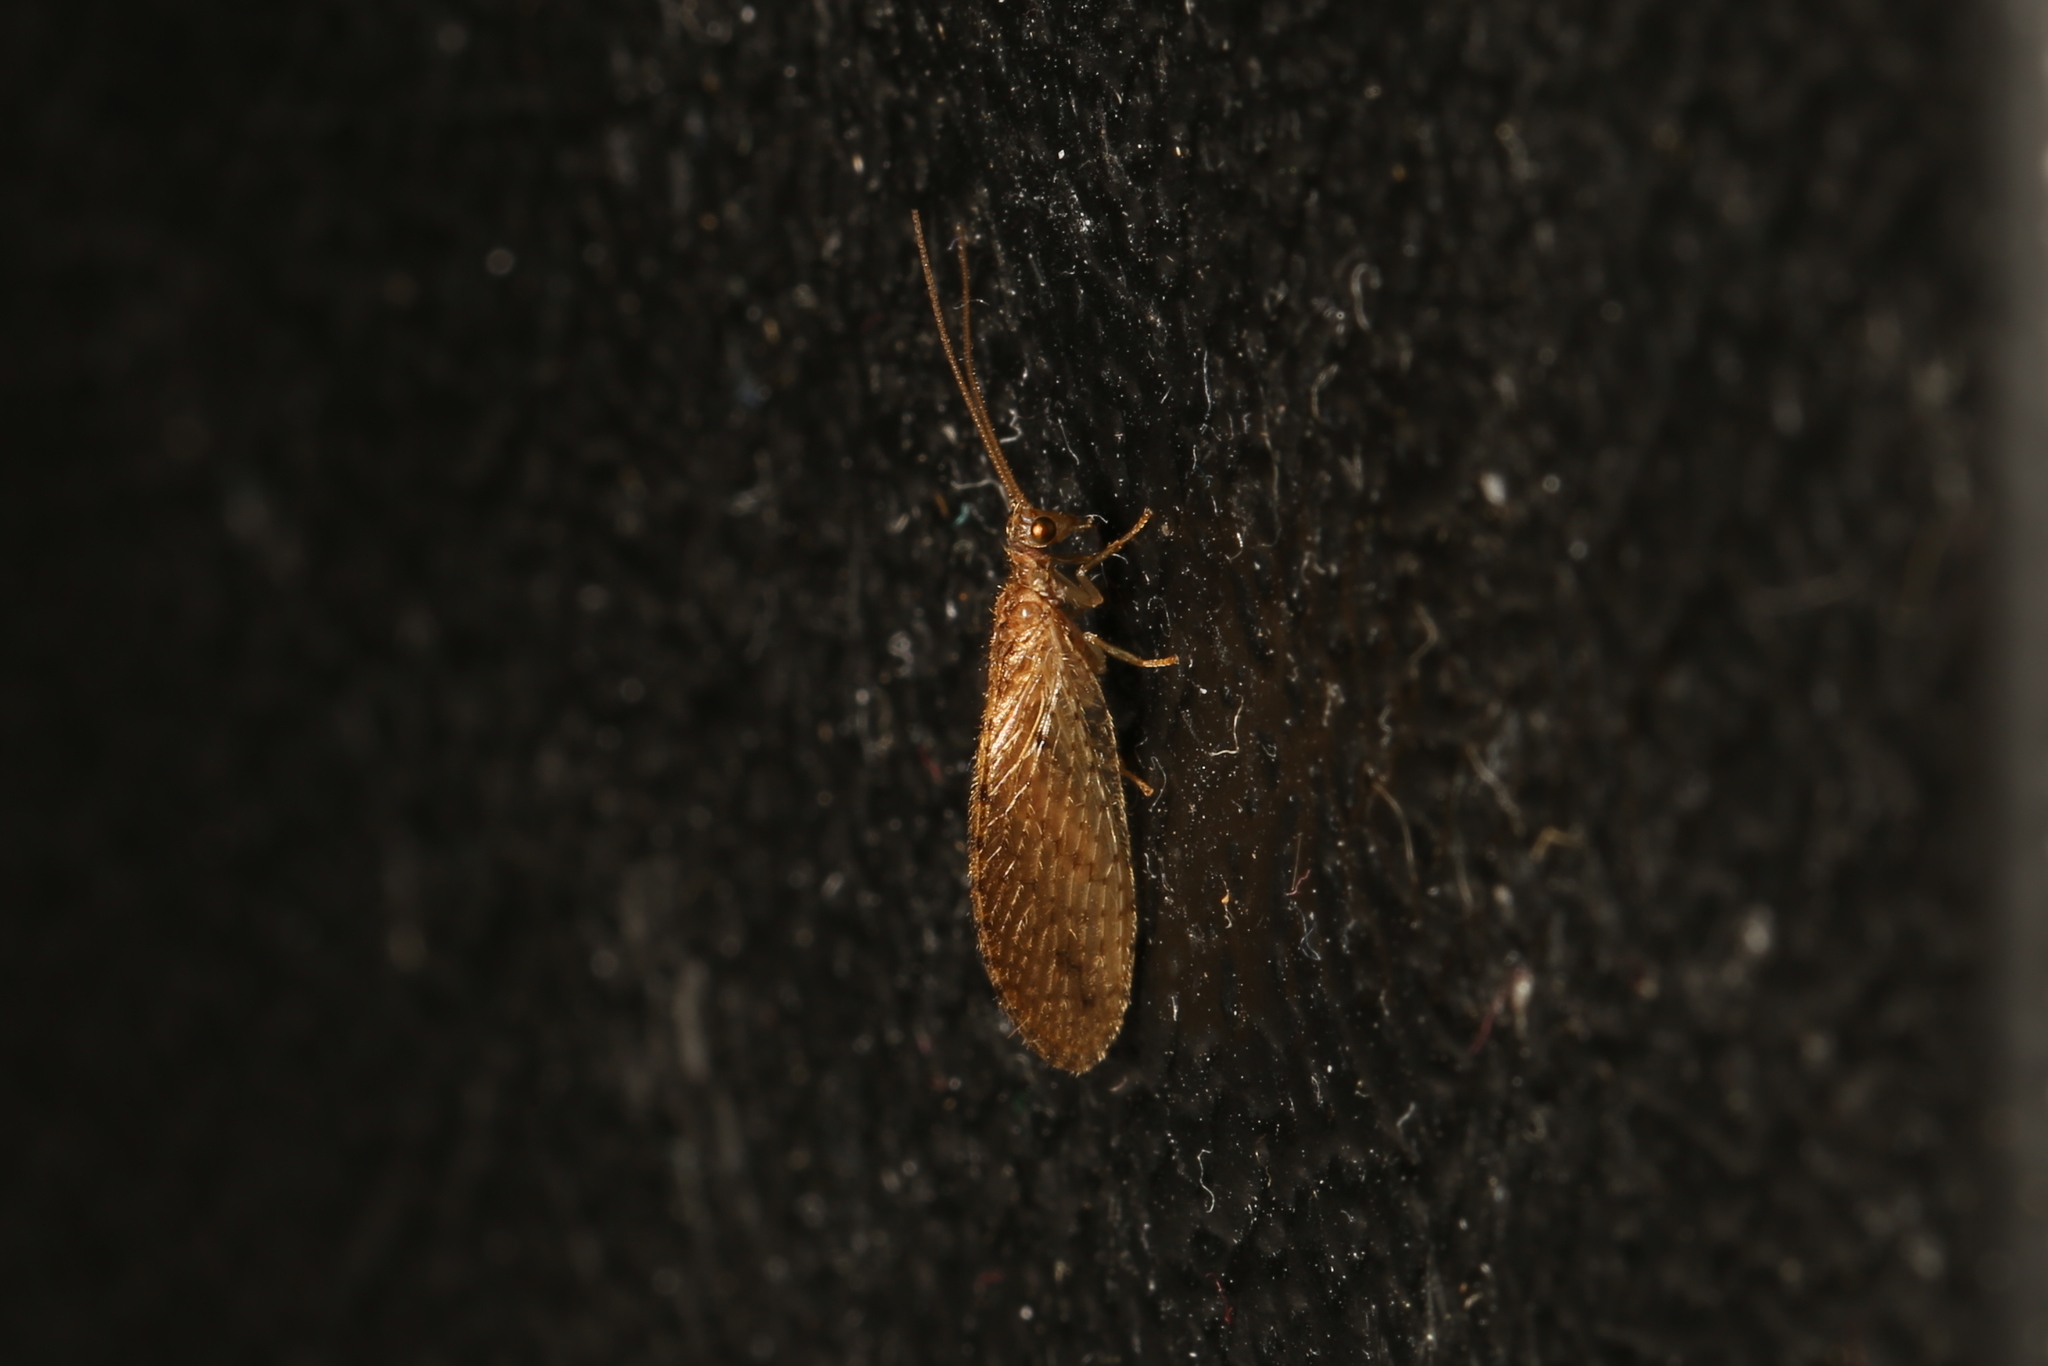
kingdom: Animalia
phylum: Arthropoda
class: Insecta
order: Neuroptera
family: Hemerobiidae
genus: Micromus
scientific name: Micromus tasmaniae
